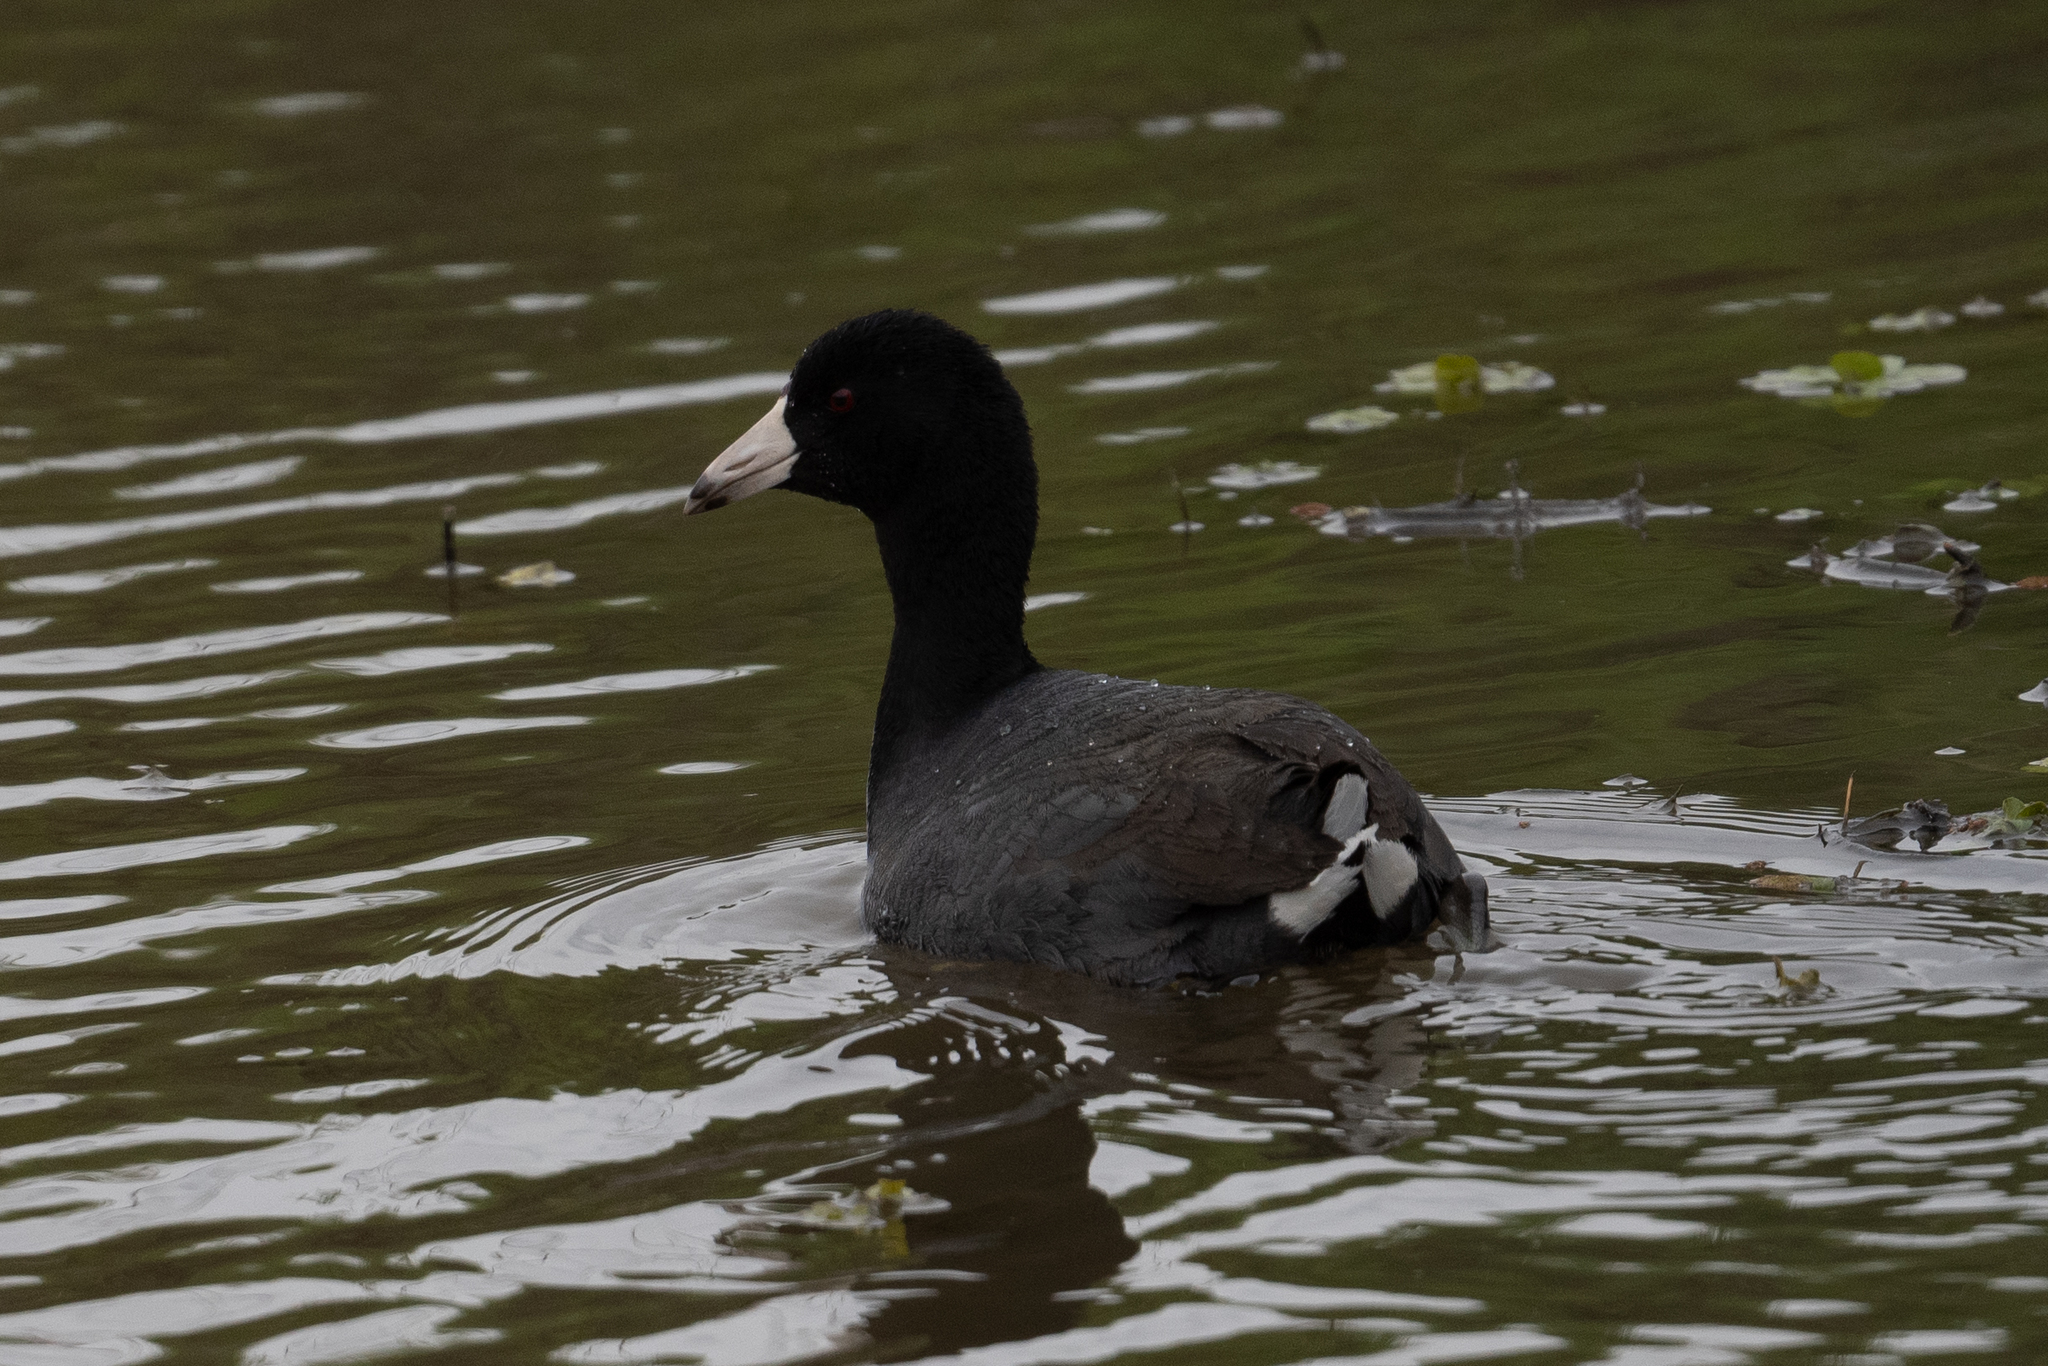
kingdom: Animalia
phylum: Chordata
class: Aves
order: Gruiformes
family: Rallidae
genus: Fulica
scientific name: Fulica americana
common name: American coot
